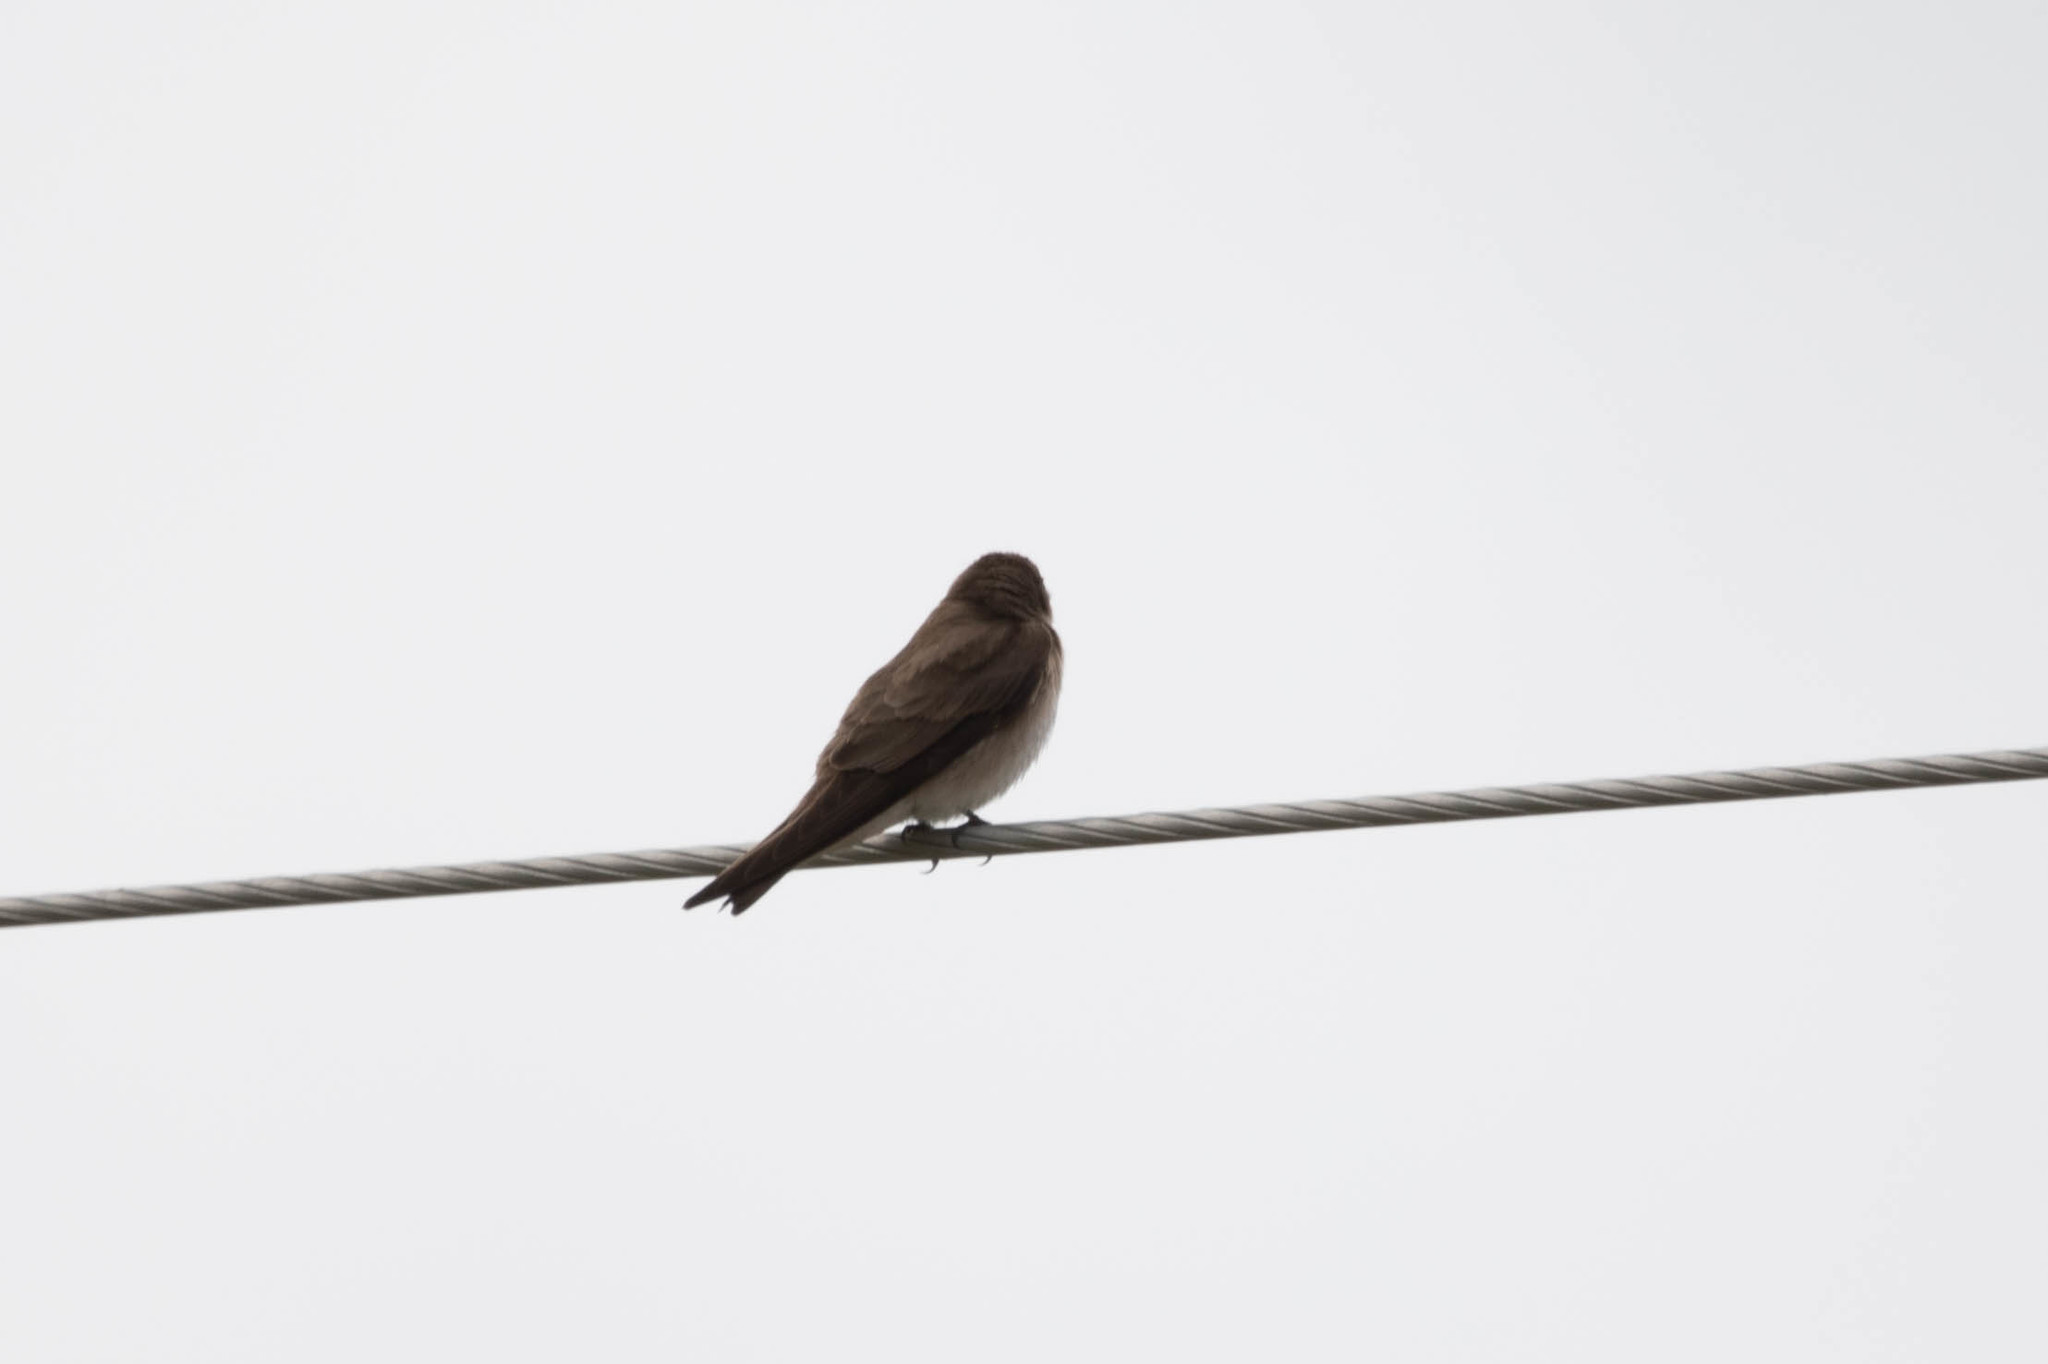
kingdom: Animalia
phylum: Chordata
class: Aves
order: Passeriformes
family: Hirundinidae
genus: Stelgidopteryx
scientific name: Stelgidopteryx serripennis
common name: Northern rough-winged swallow
